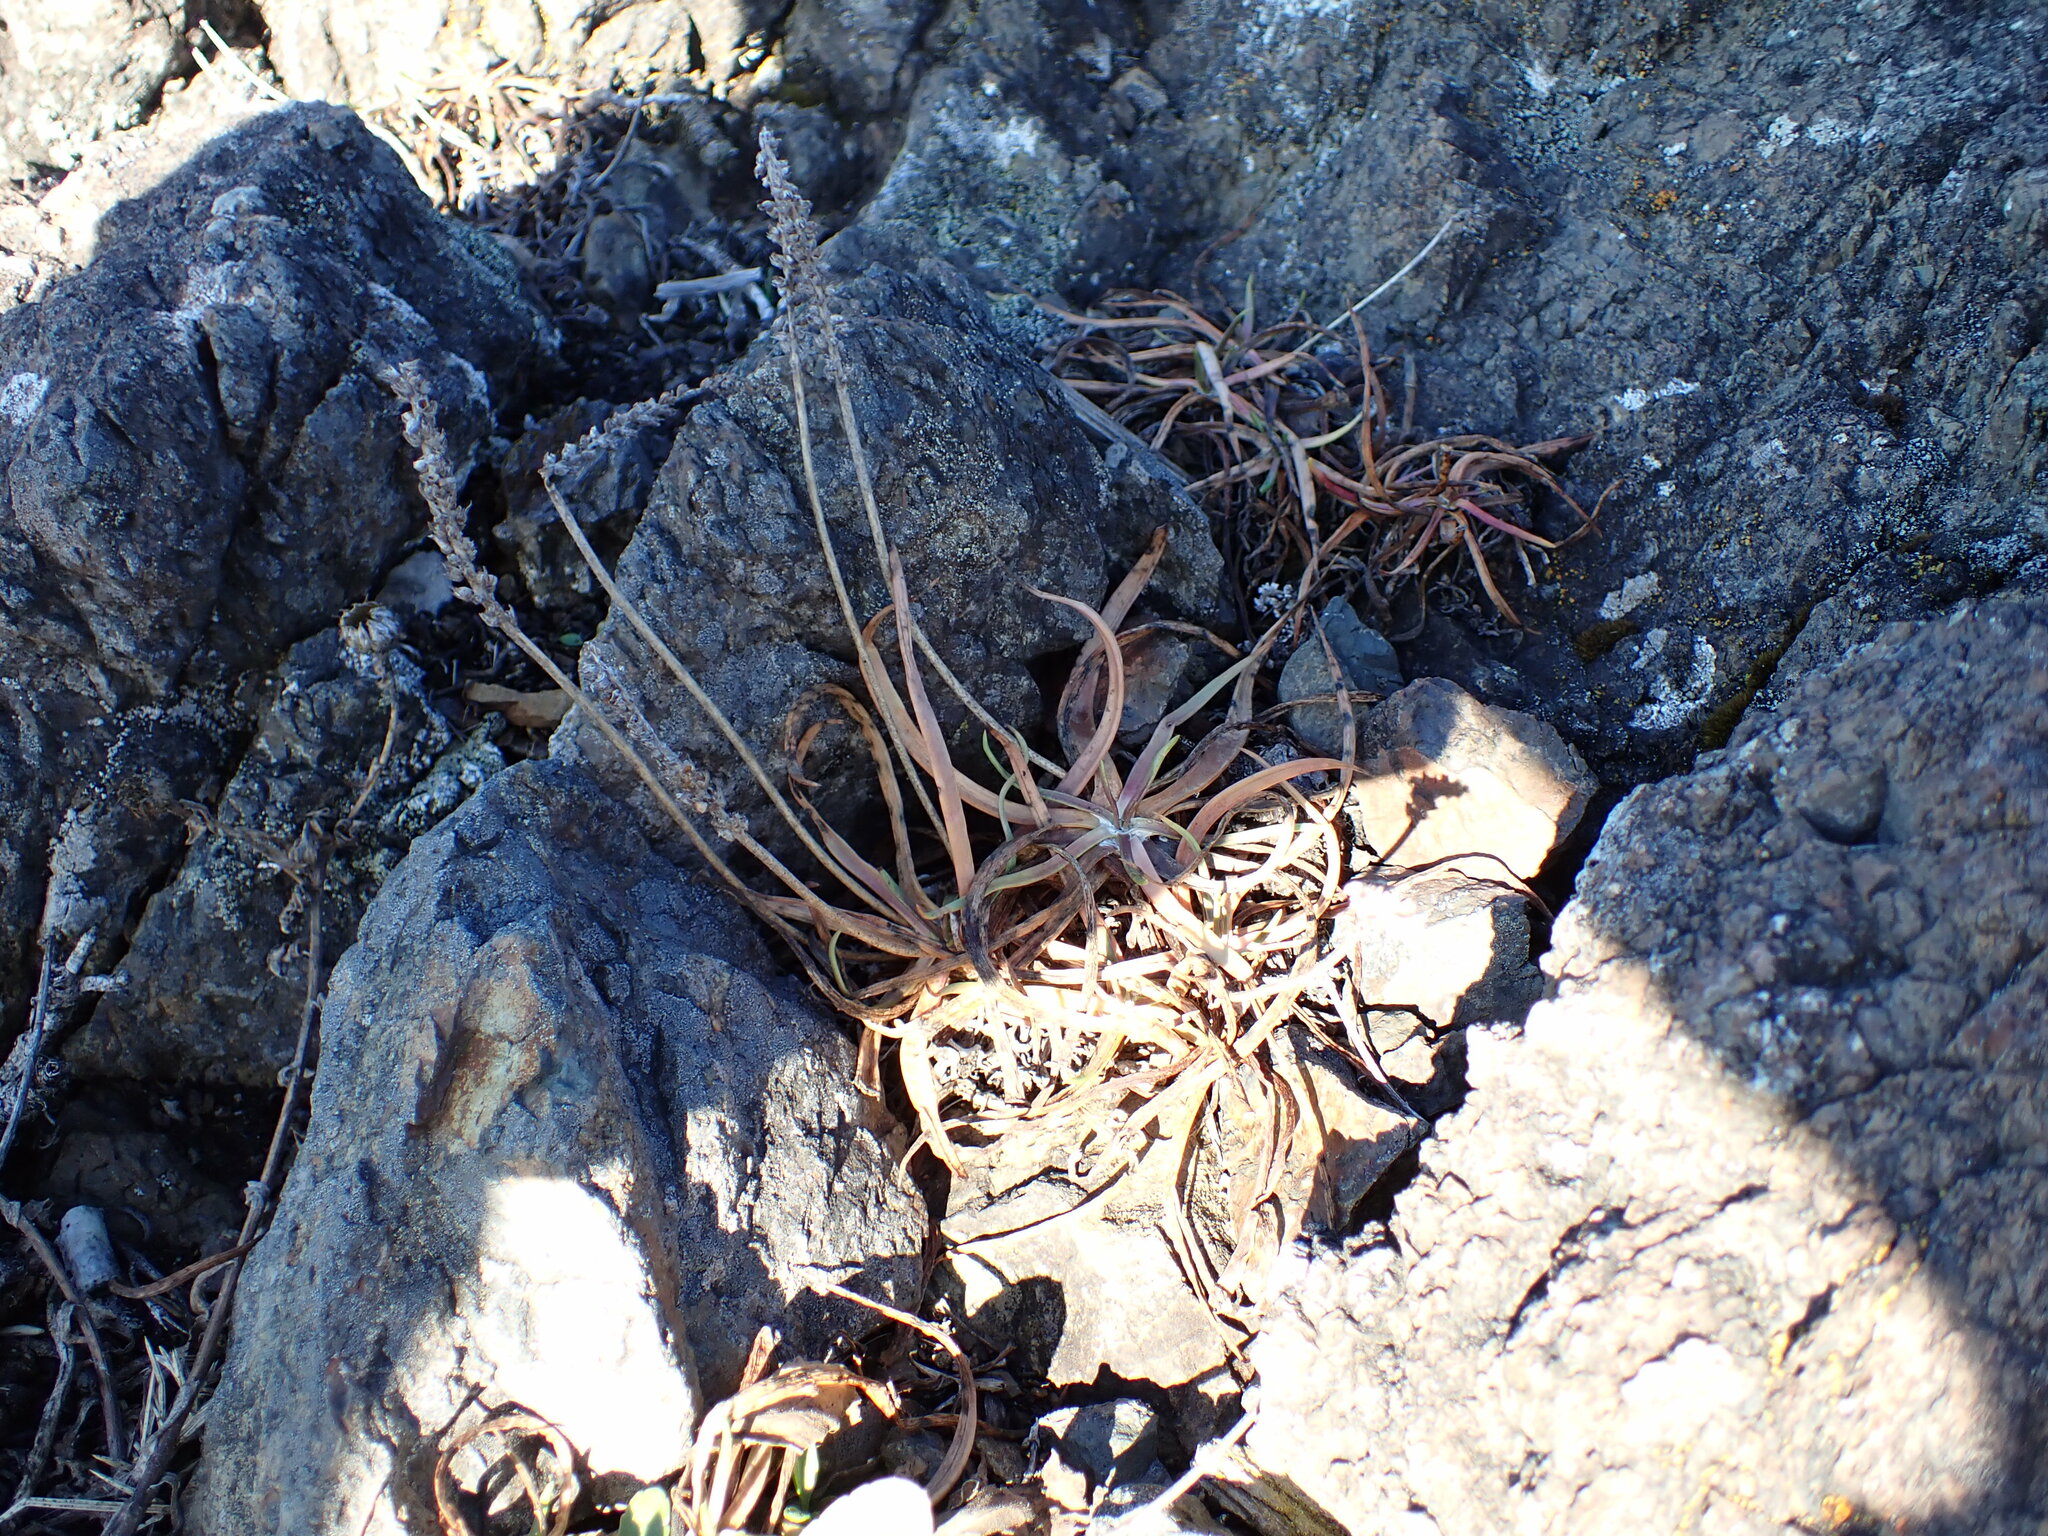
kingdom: Plantae
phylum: Tracheophyta
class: Magnoliopsida
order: Lamiales
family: Plantaginaceae
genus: Plantago
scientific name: Plantago maritima
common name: Sea plantain
